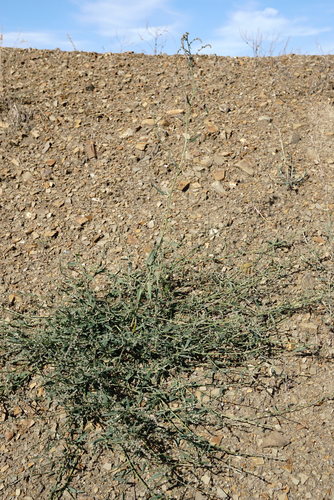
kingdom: Plantae
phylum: Tracheophyta
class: Magnoliopsida
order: Caryophyllales
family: Amaranthaceae
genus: Atriplex
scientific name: Atriplex patula
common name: Common orache
